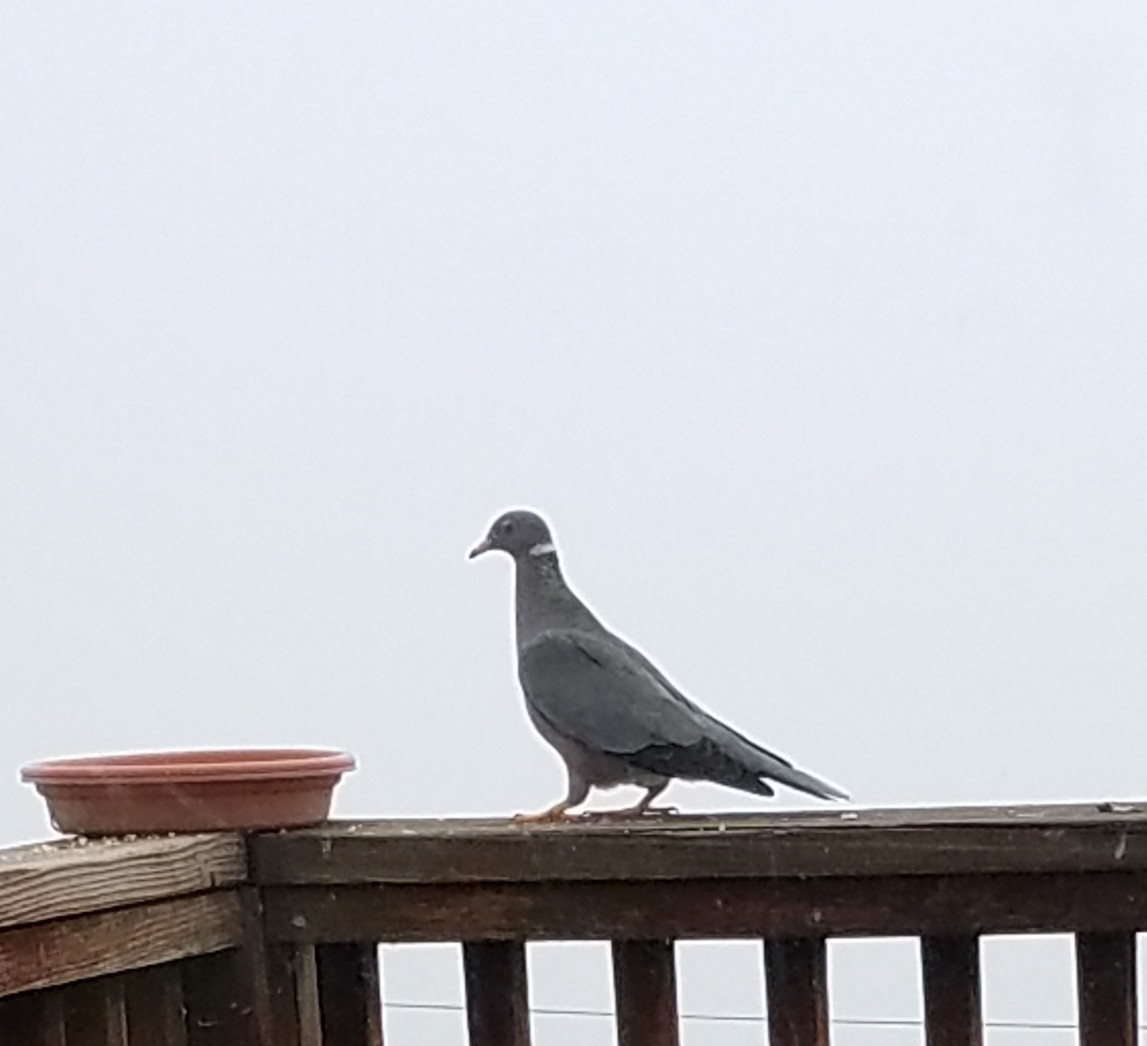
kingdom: Animalia
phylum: Chordata
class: Aves
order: Columbiformes
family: Columbidae
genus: Patagioenas
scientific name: Patagioenas fasciata
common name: Band-tailed pigeon
